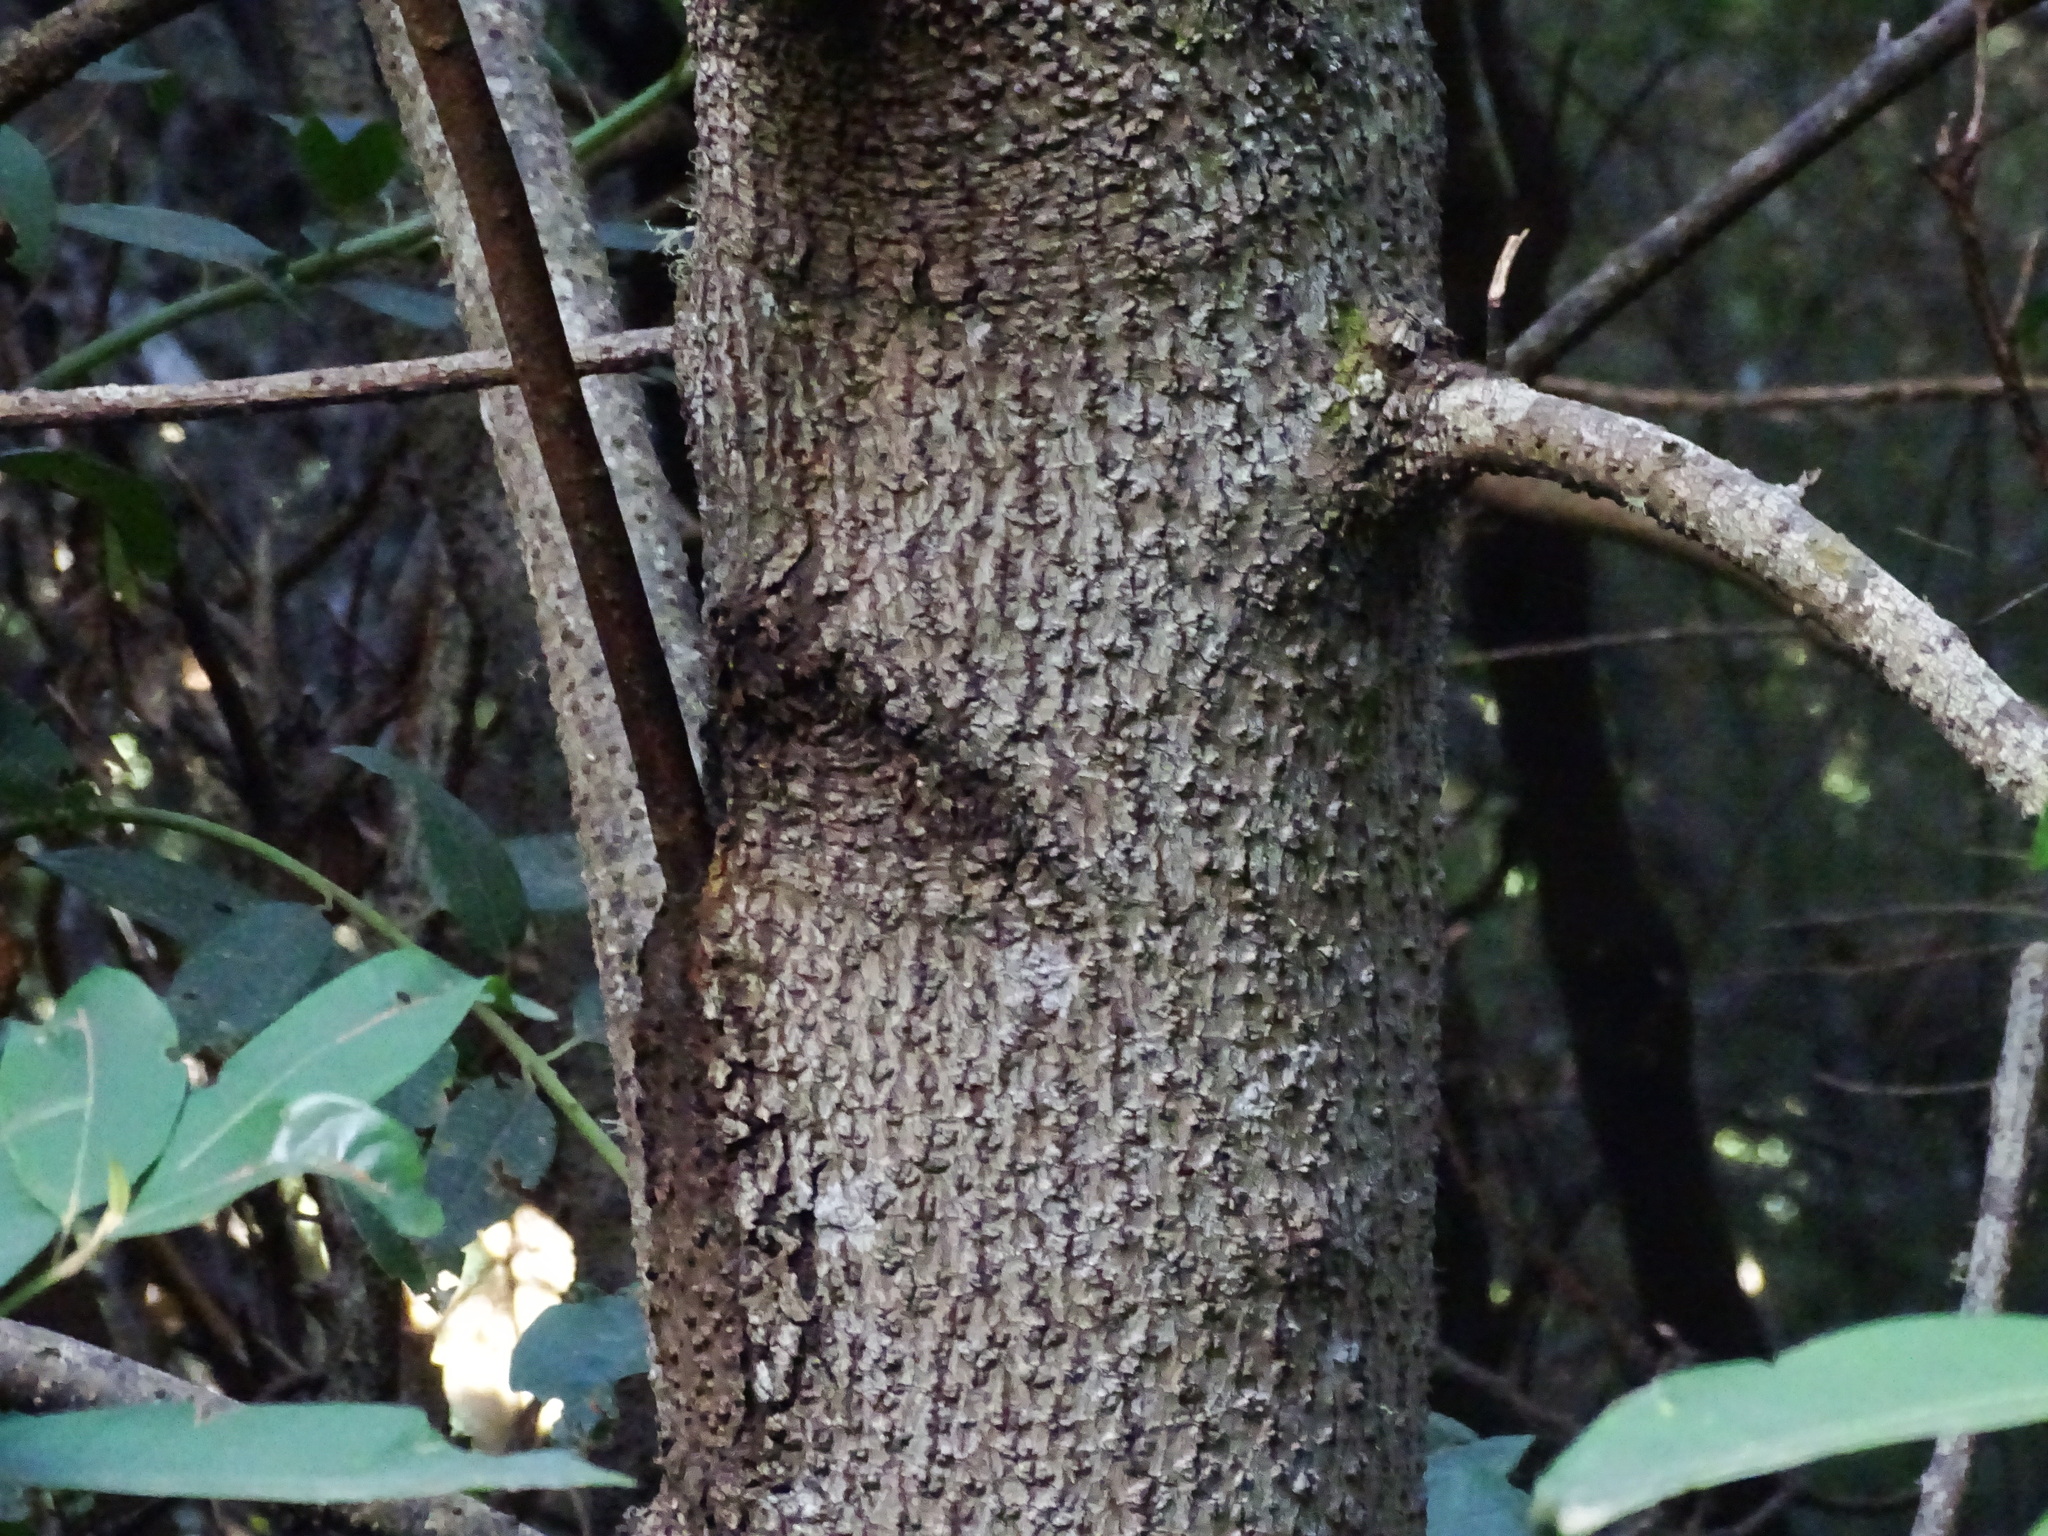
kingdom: Plantae
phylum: Tracheophyta
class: Magnoliopsida
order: Laurales
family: Lauraceae
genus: Persea
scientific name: Persea indica
